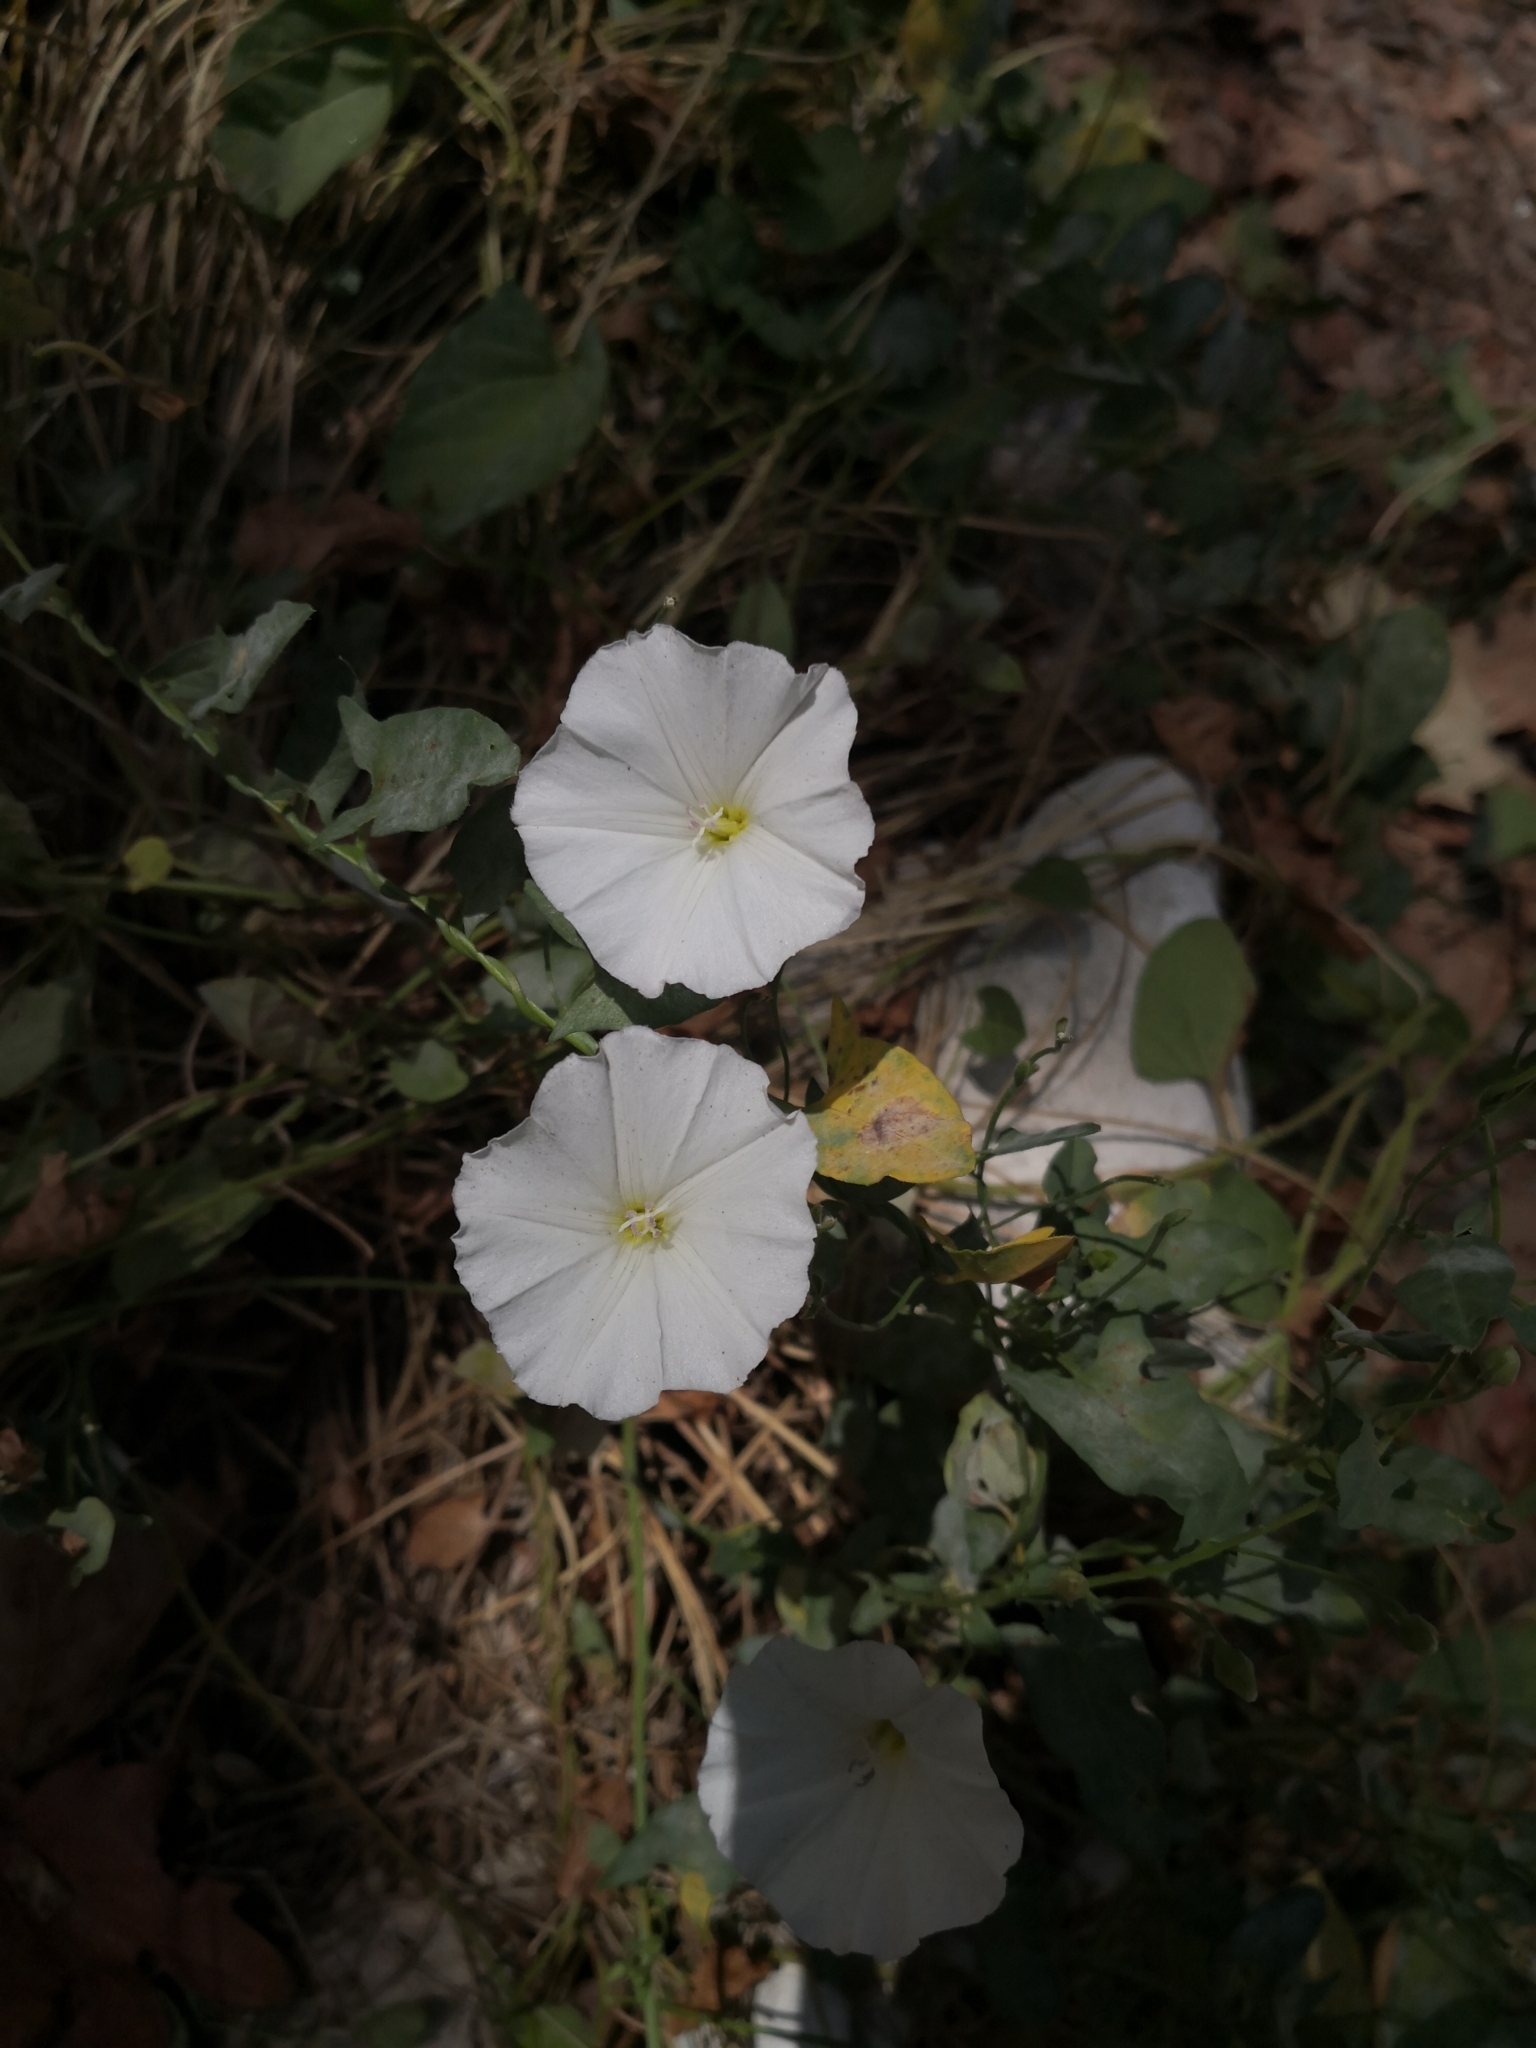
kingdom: Plantae
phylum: Tracheophyta
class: Magnoliopsida
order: Solanales
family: Convolvulaceae
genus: Convolvulus
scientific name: Convolvulus arvensis
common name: Field bindweed
